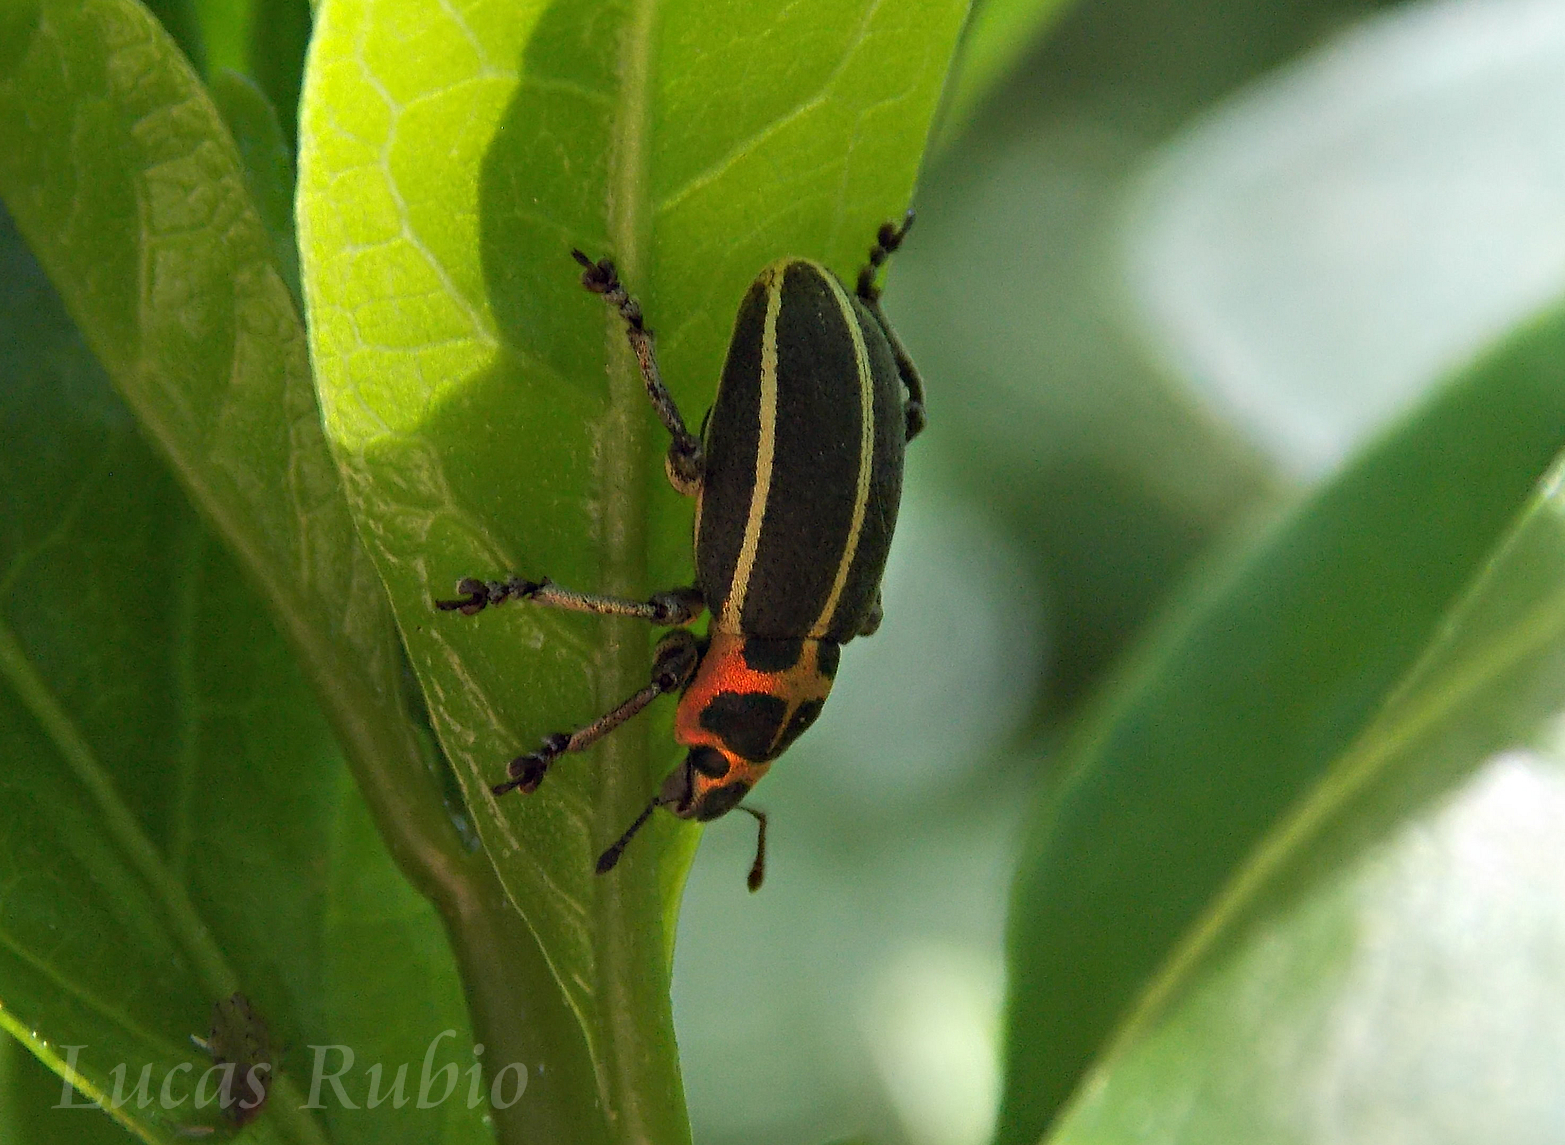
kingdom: Animalia
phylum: Arthropoda
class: Insecta
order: Coleoptera
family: Curculionidae
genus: Eudiagogus
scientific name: Eudiagogus episcopalis
